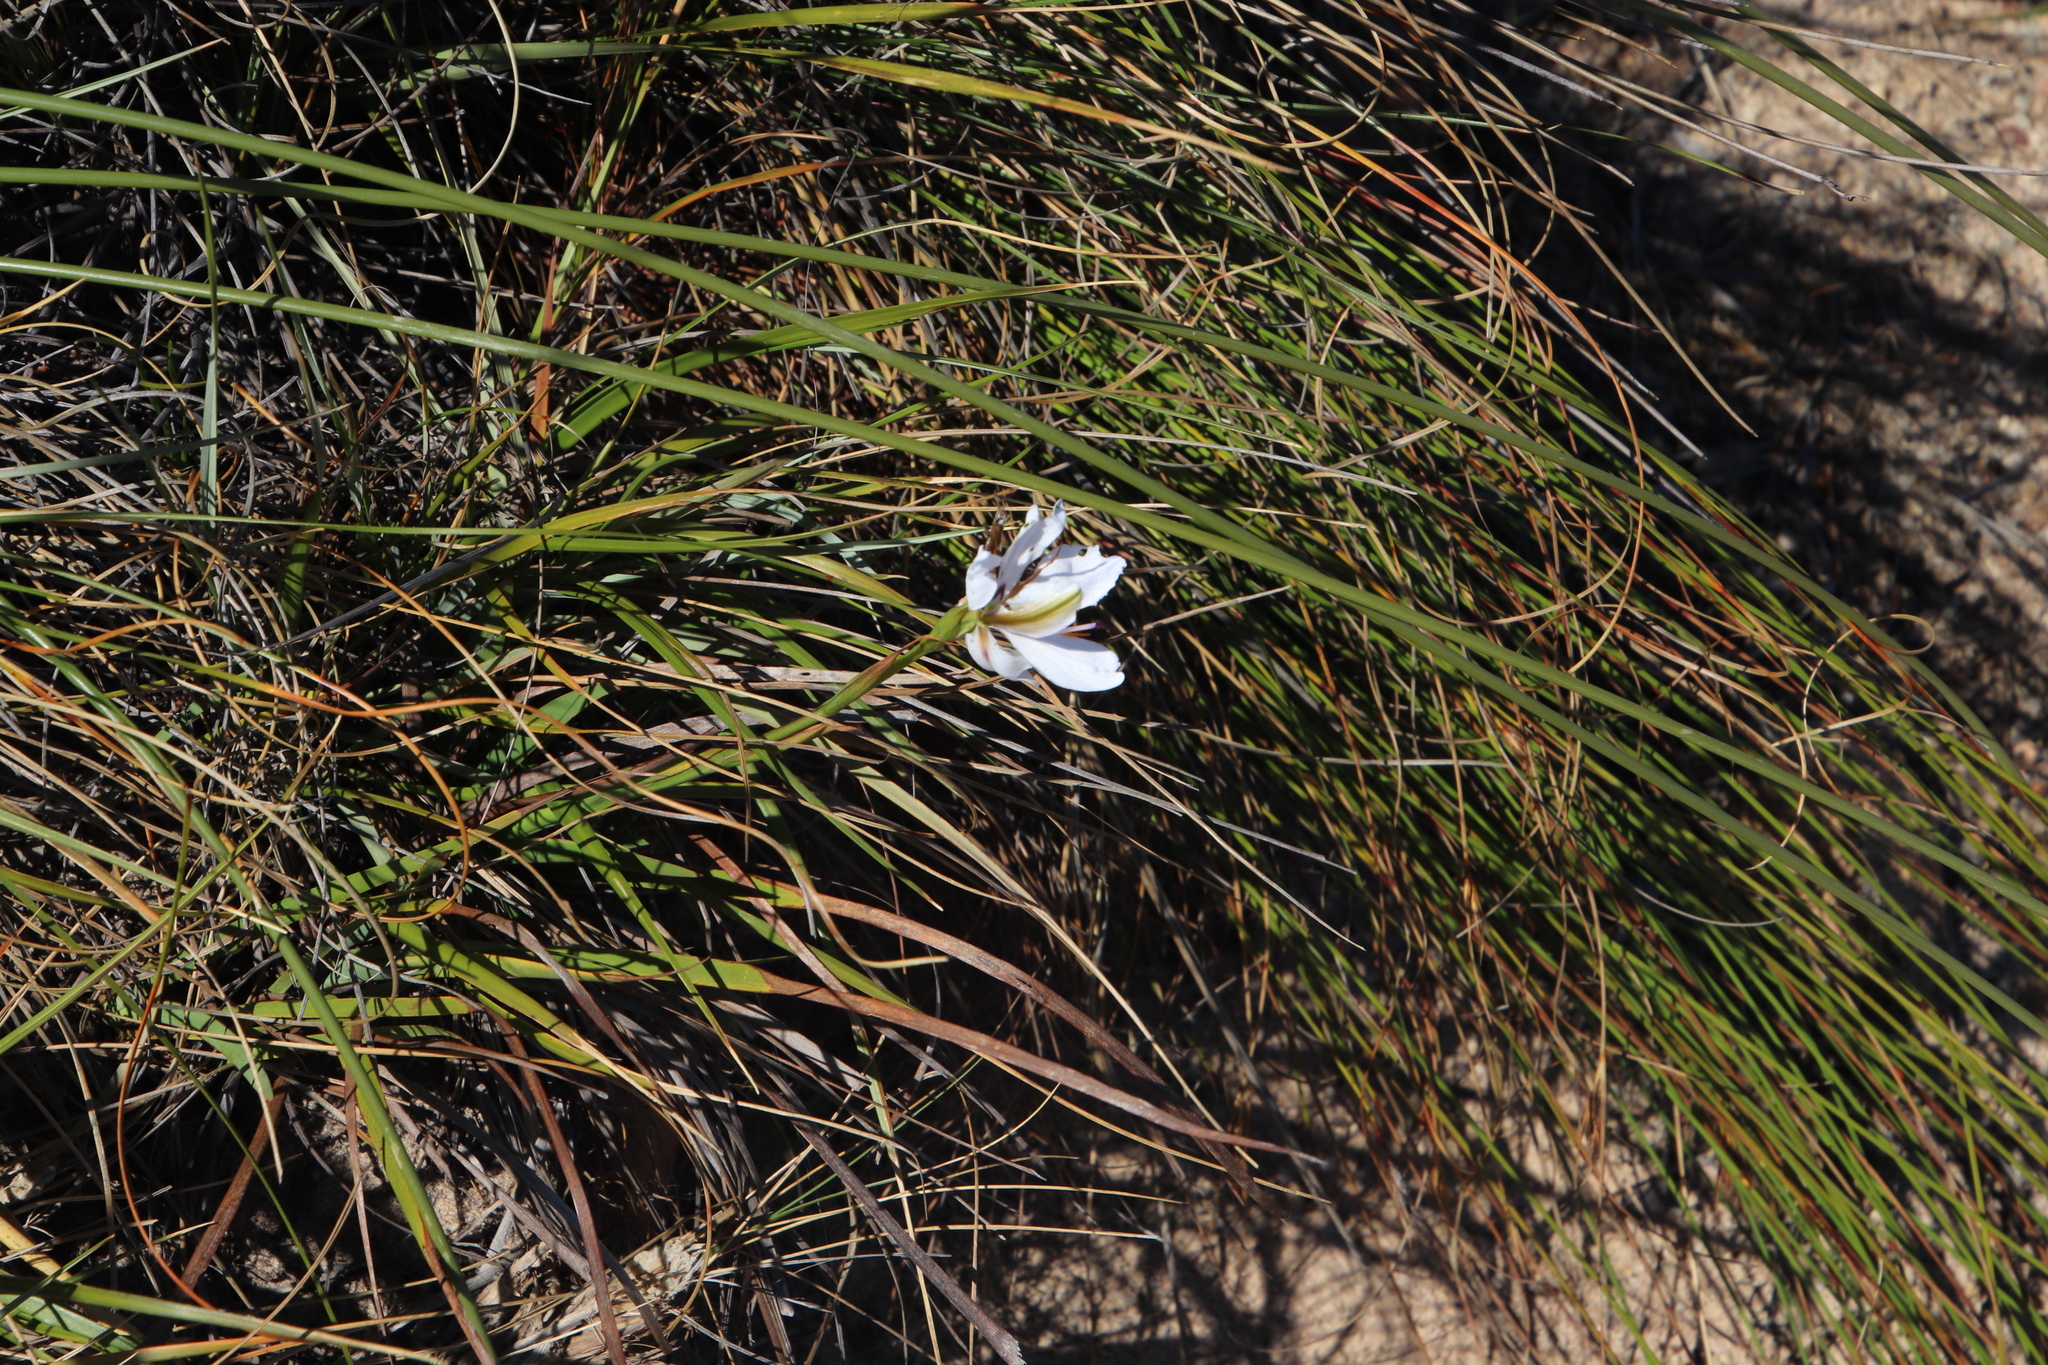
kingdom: Plantae
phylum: Tracheophyta
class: Liliopsida
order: Asparagales
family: Iridaceae
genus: Aristea
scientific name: Aristea spiralis
